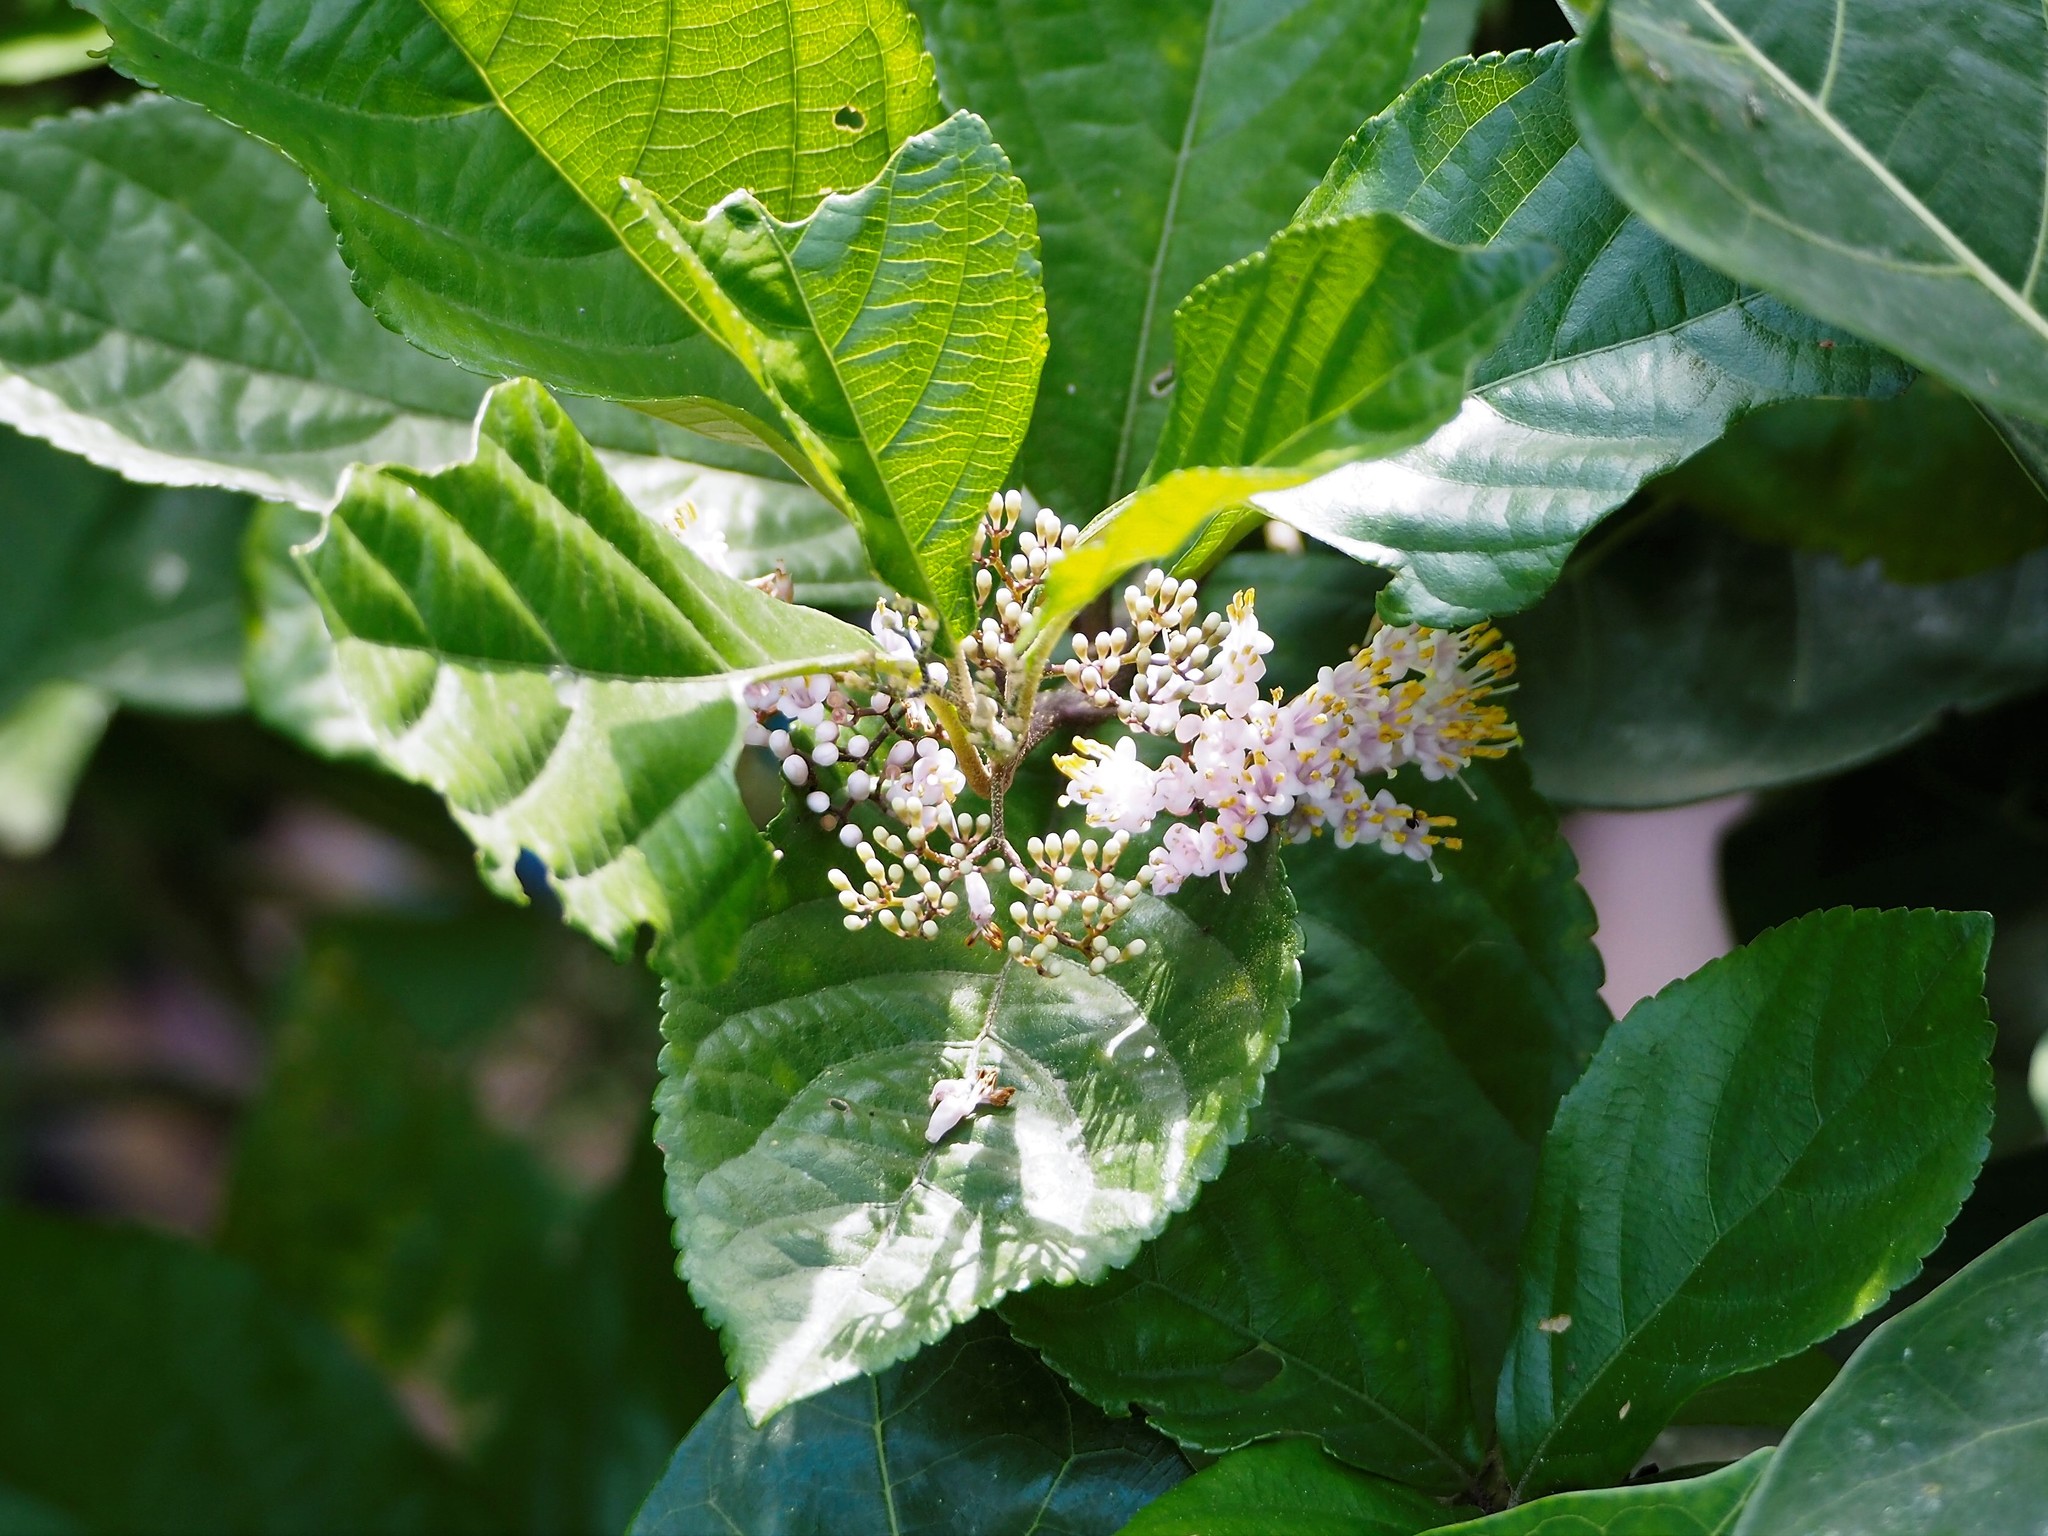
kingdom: Plantae
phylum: Tracheophyta
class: Magnoliopsida
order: Lamiales
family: Lamiaceae
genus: Callicarpa
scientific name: Callicarpa japonica
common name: Japanese beauty-berry
